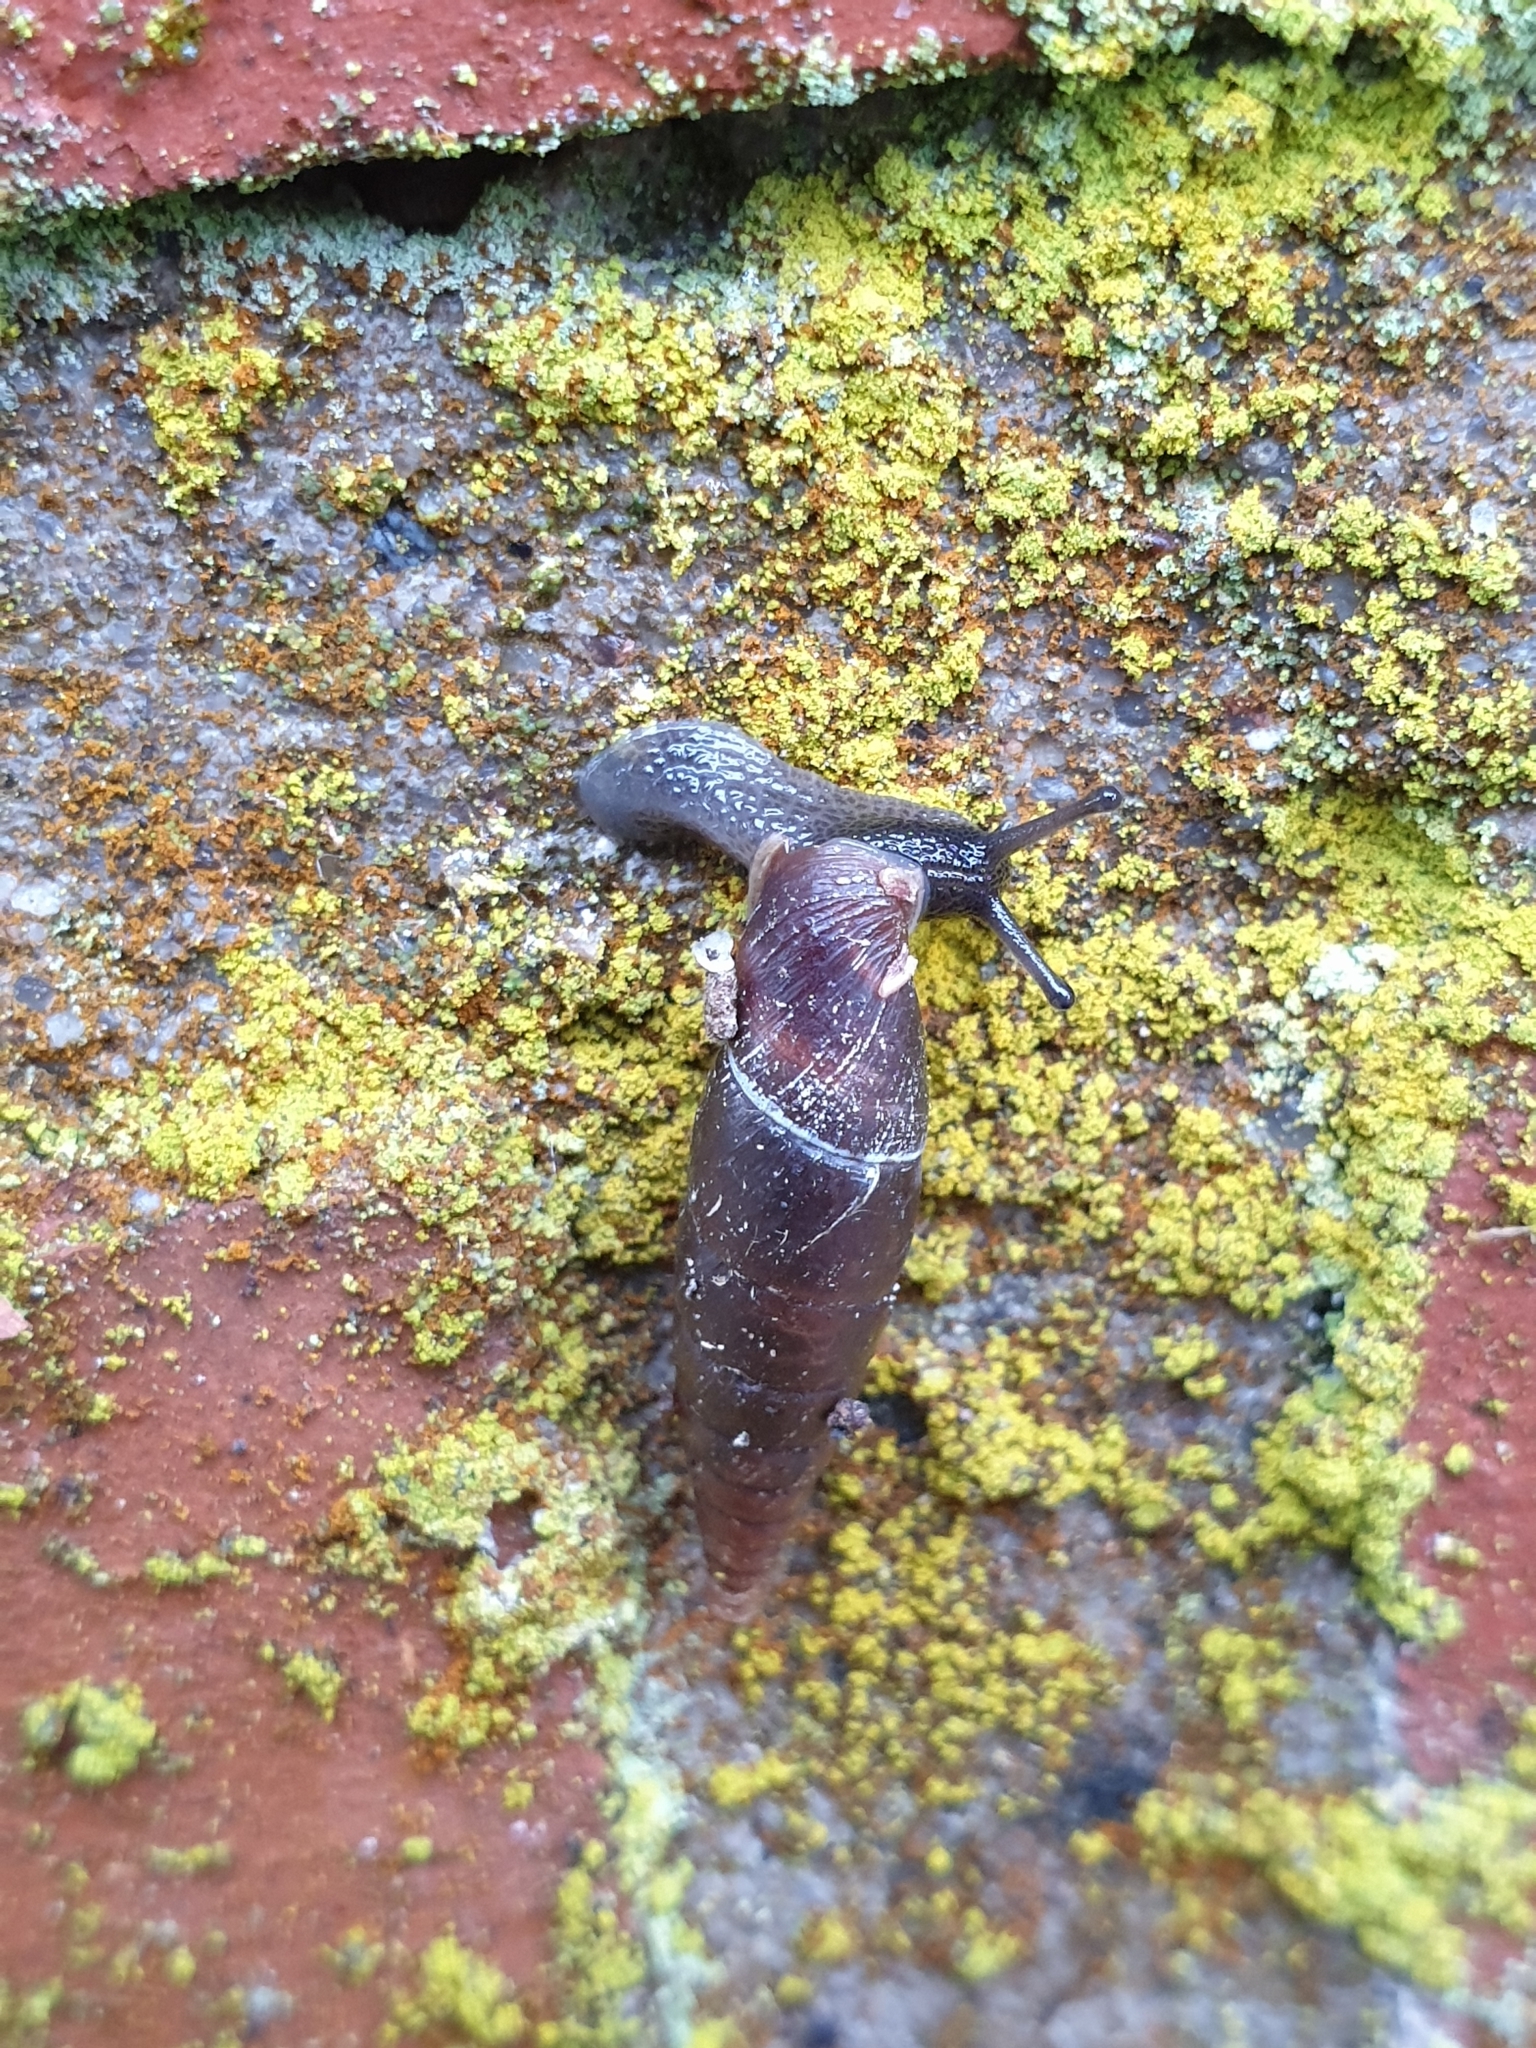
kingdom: Animalia
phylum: Mollusca
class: Gastropoda
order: Stylommatophora
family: Clausiliidae
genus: Cochlodina
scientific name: Cochlodina laminata
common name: Plaited door snail
